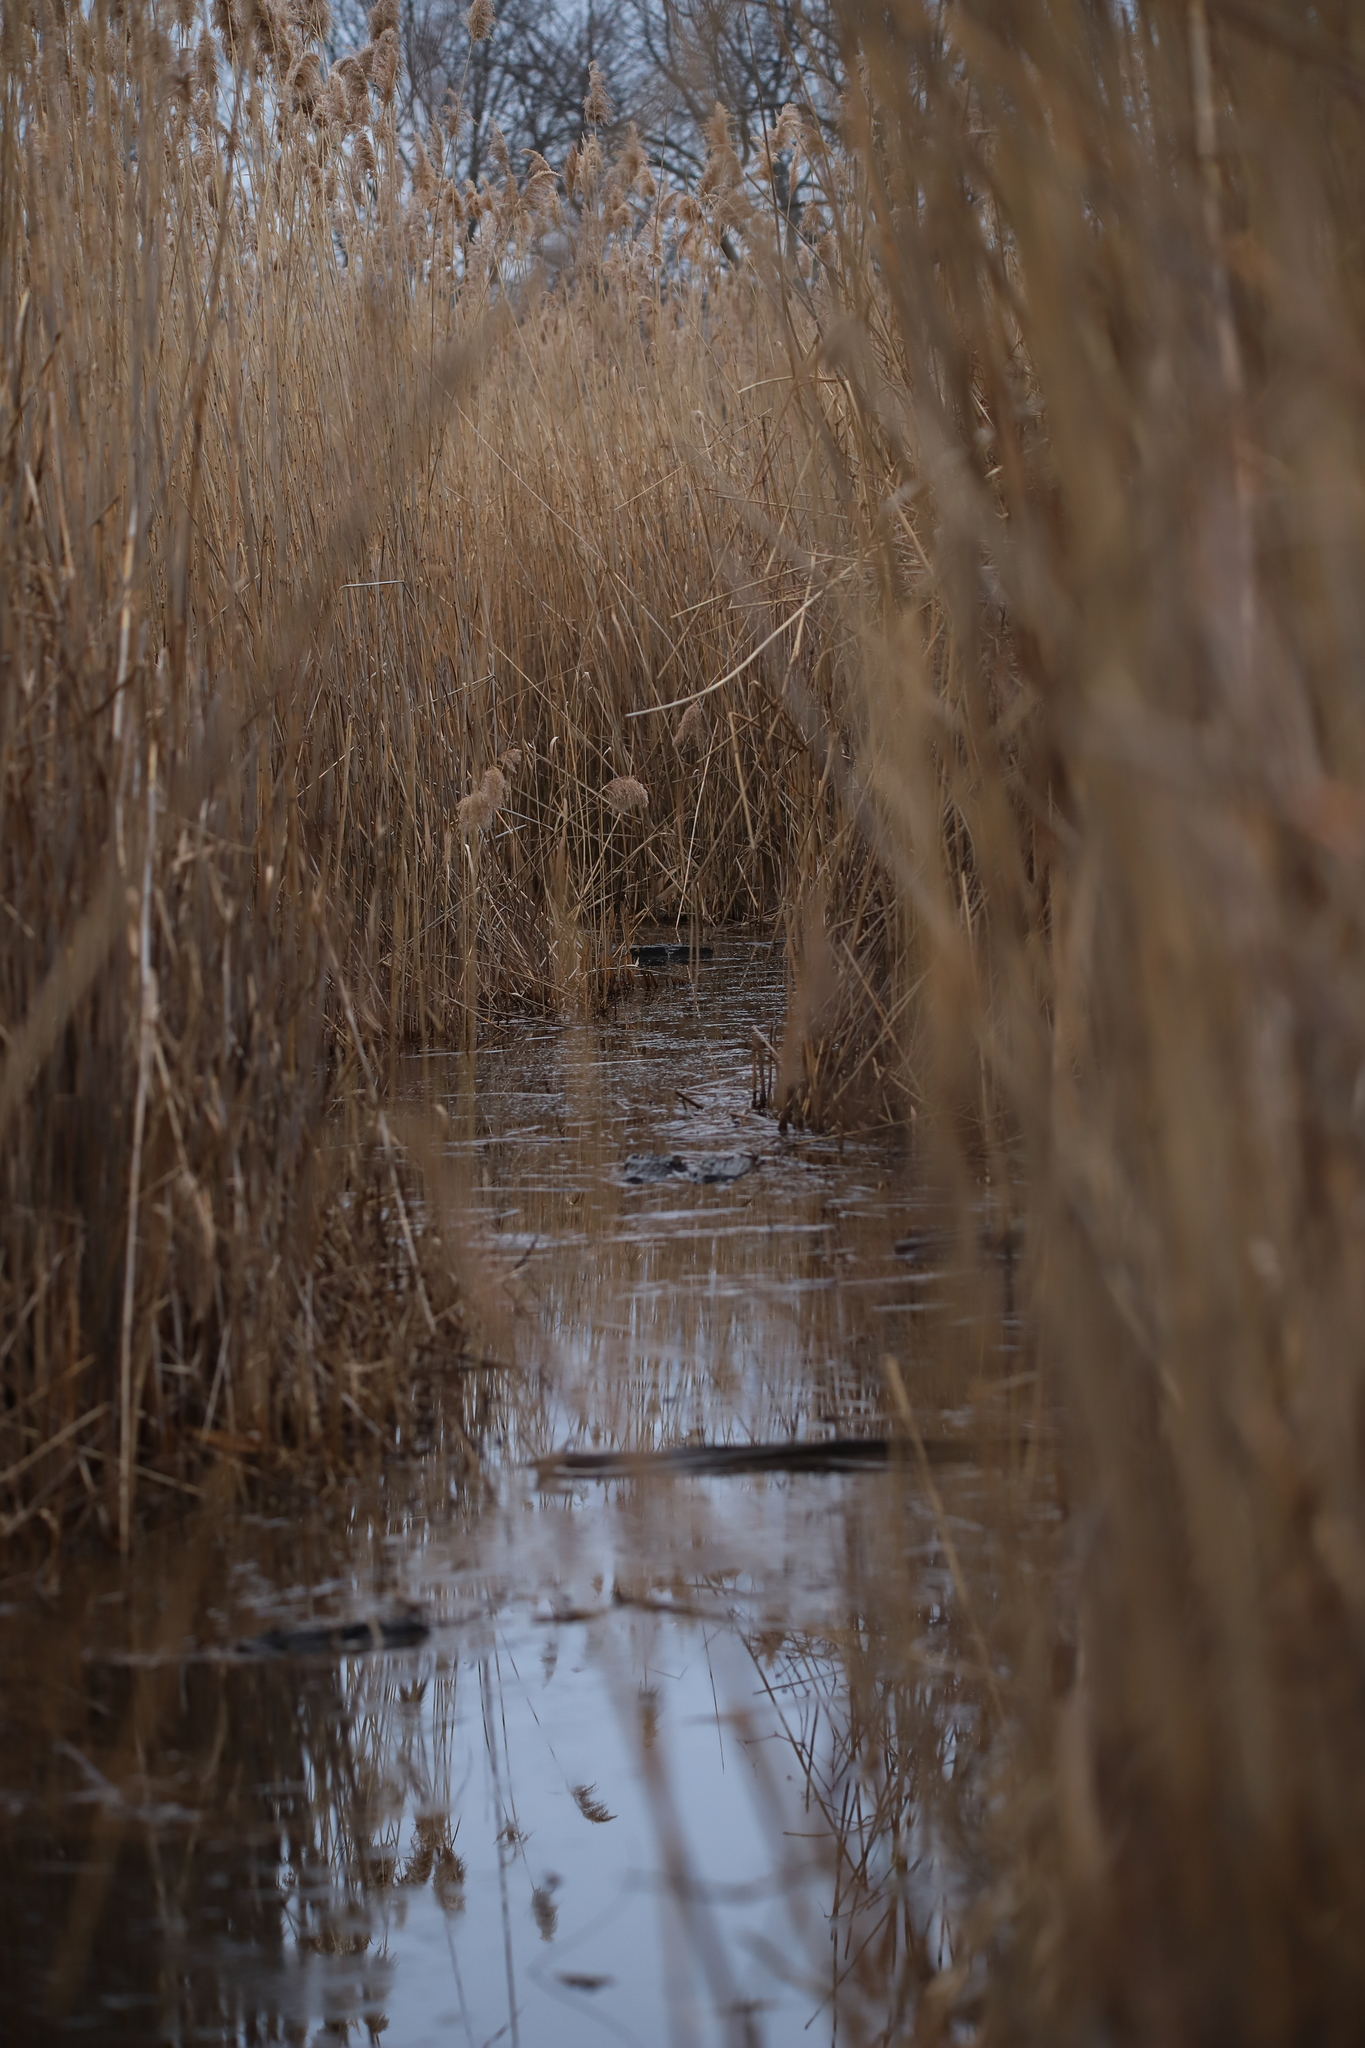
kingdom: Plantae
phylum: Tracheophyta
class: Liliopsida
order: Poales
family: Poaceae
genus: Phragmites
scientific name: Phragmites australis
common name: Common reed
